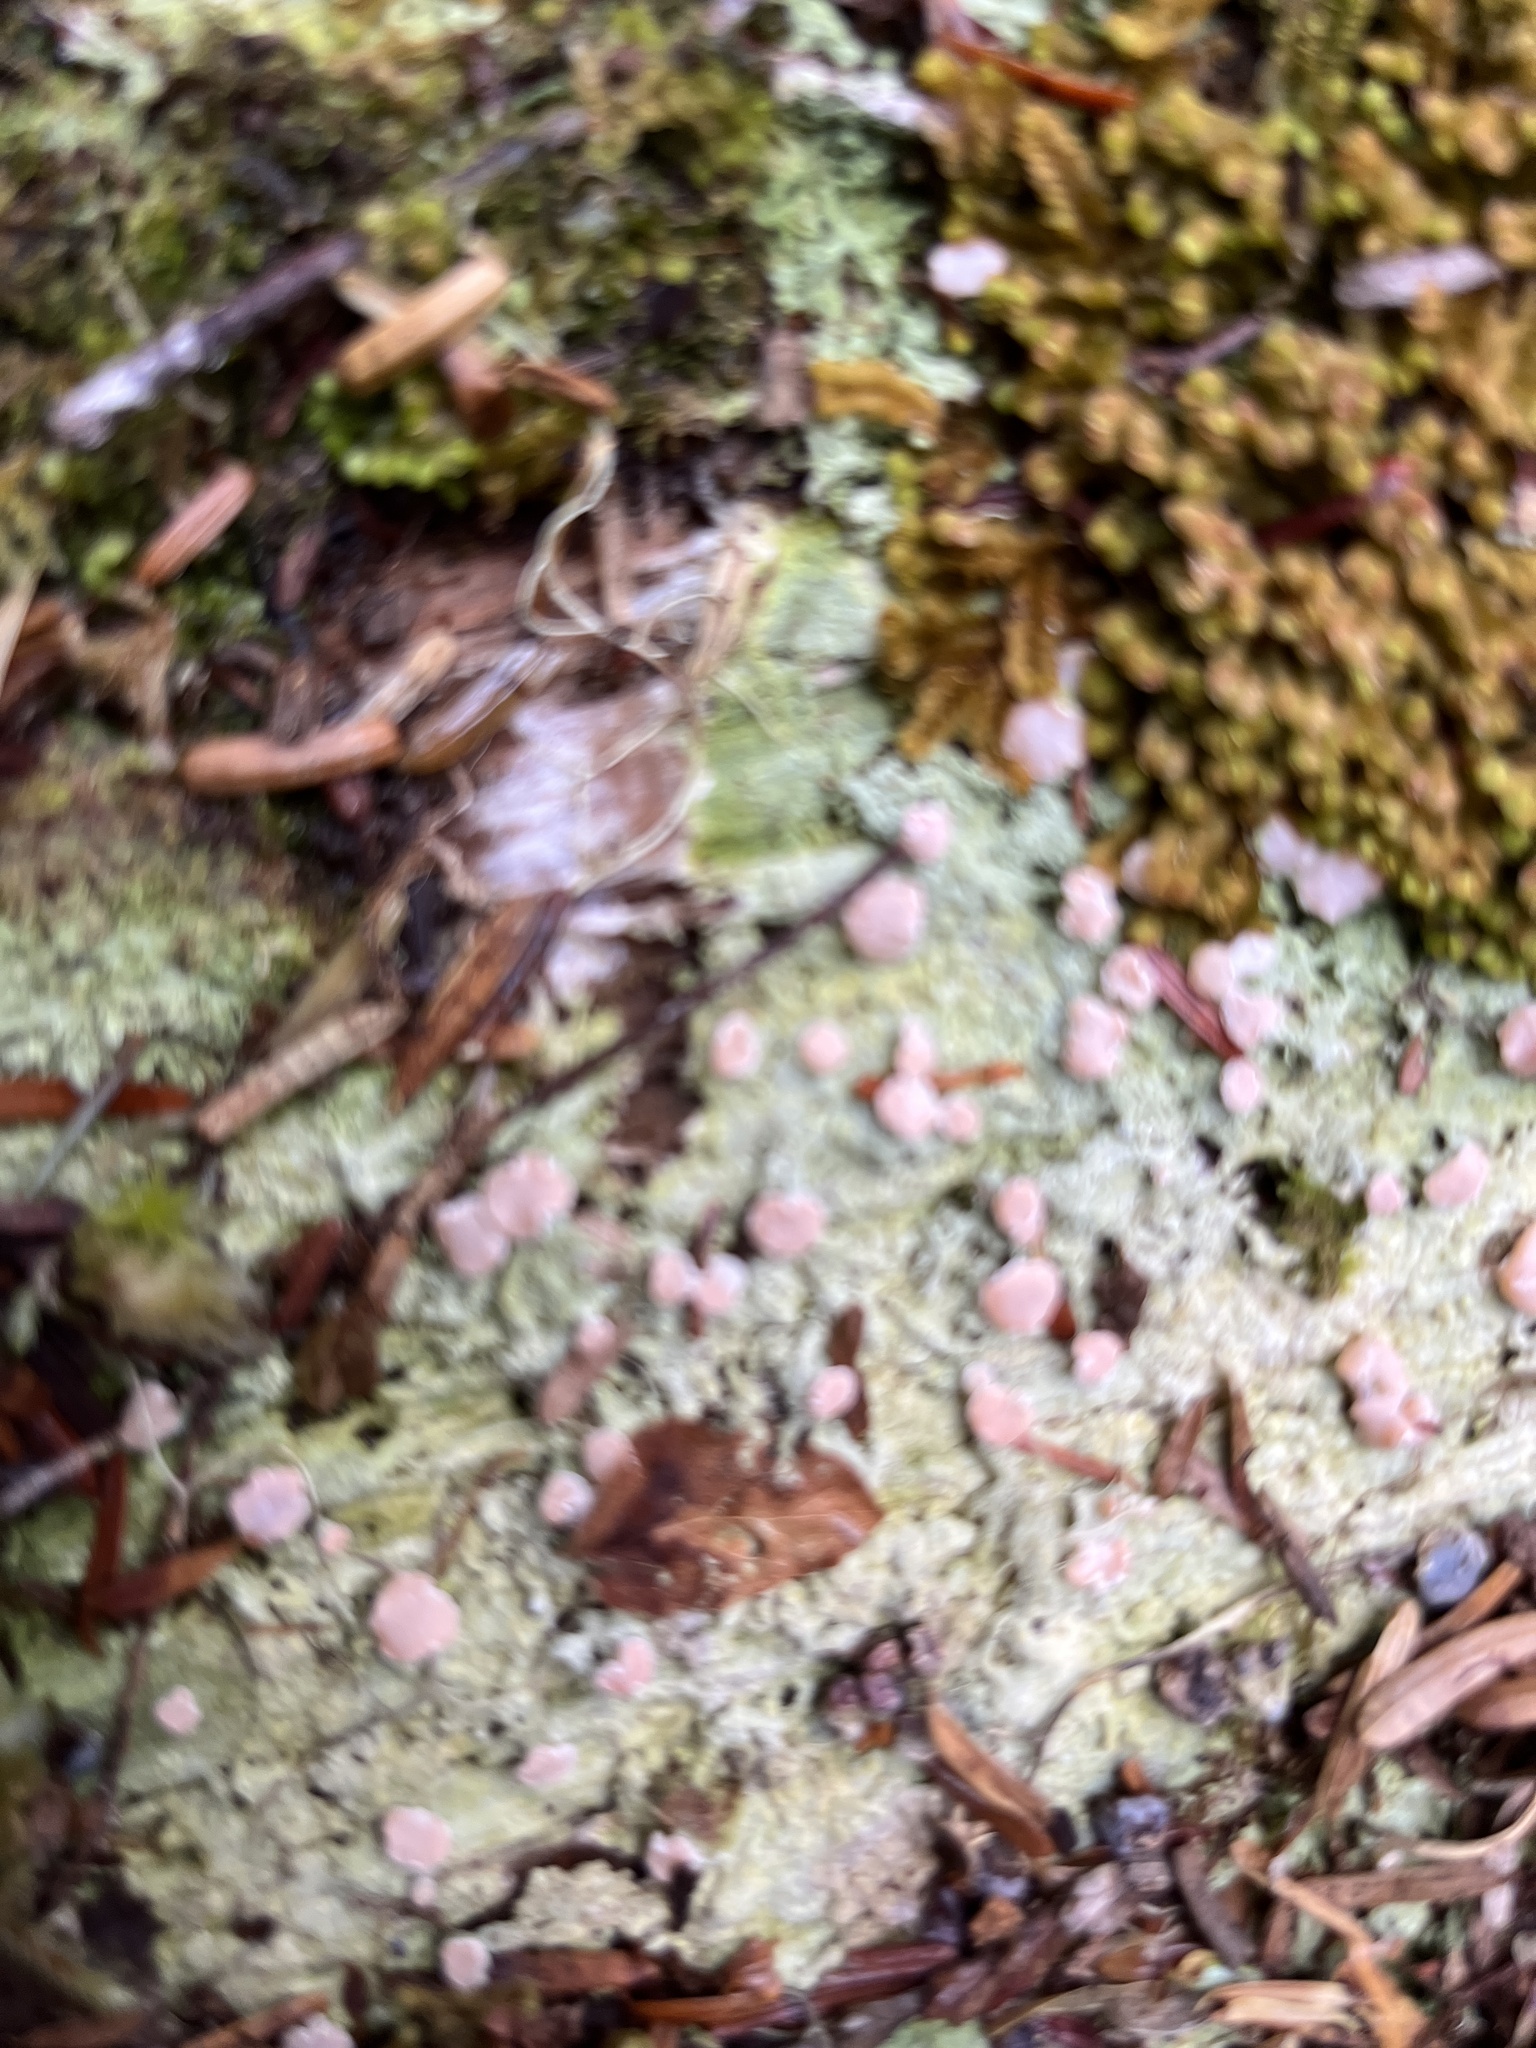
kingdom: Fungi
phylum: Ascomycota
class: Lecanoromycetes
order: Pertusariales
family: Icmadophilaceae
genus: Icmadophila
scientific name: Icmadophila ericetorum
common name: Candy lichen
